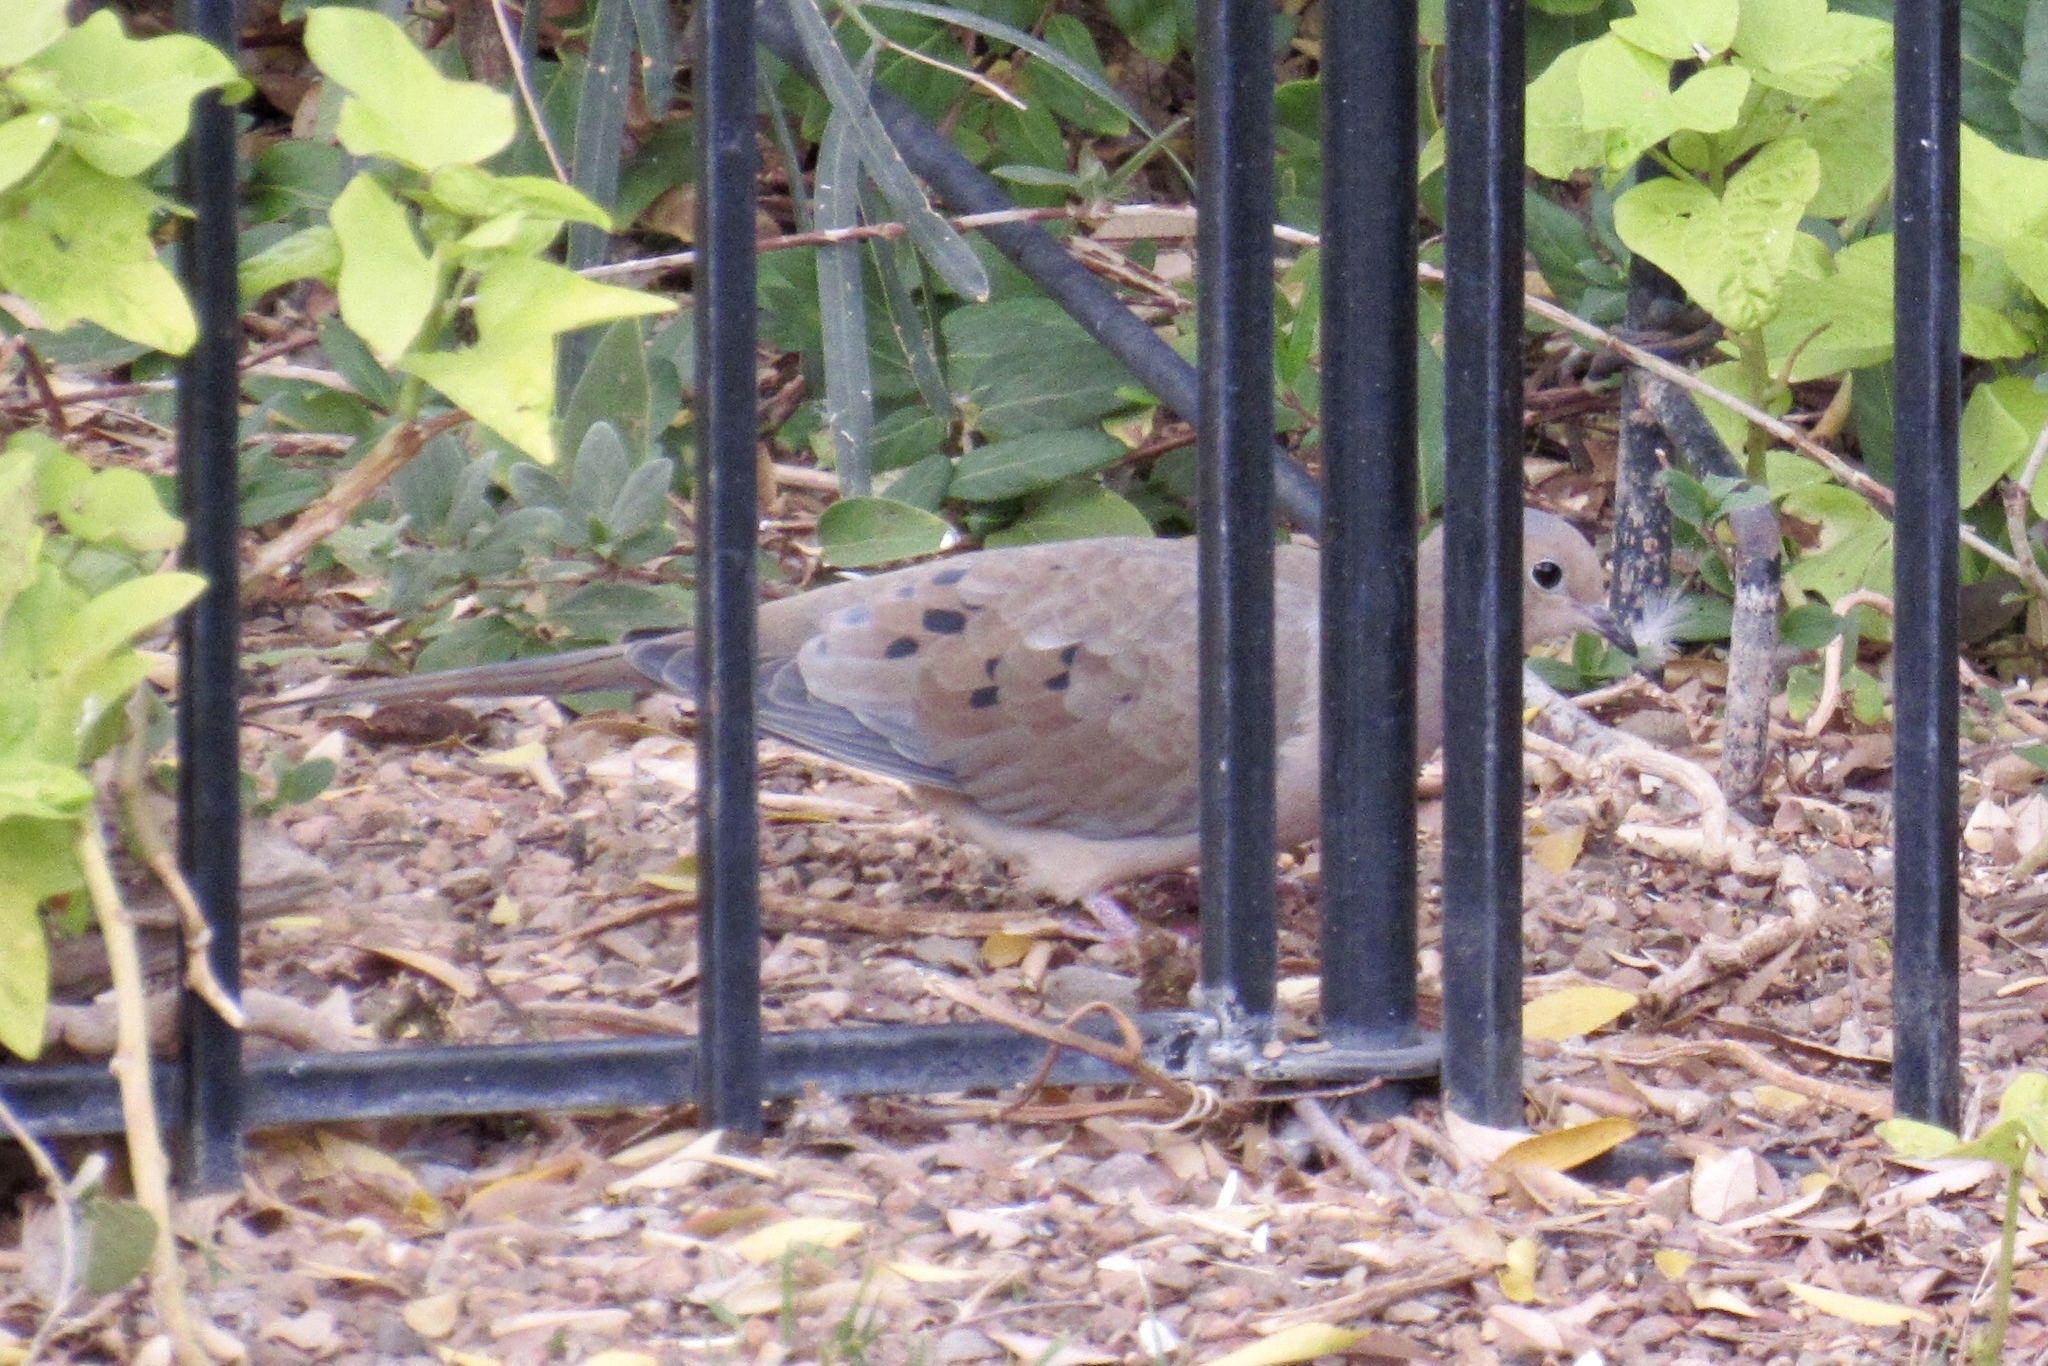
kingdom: Animalia
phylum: Chordata
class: Aves
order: Columbiformes
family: Columbidae
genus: Zenaida
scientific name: Zenaida macroura
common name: Mourning dove
